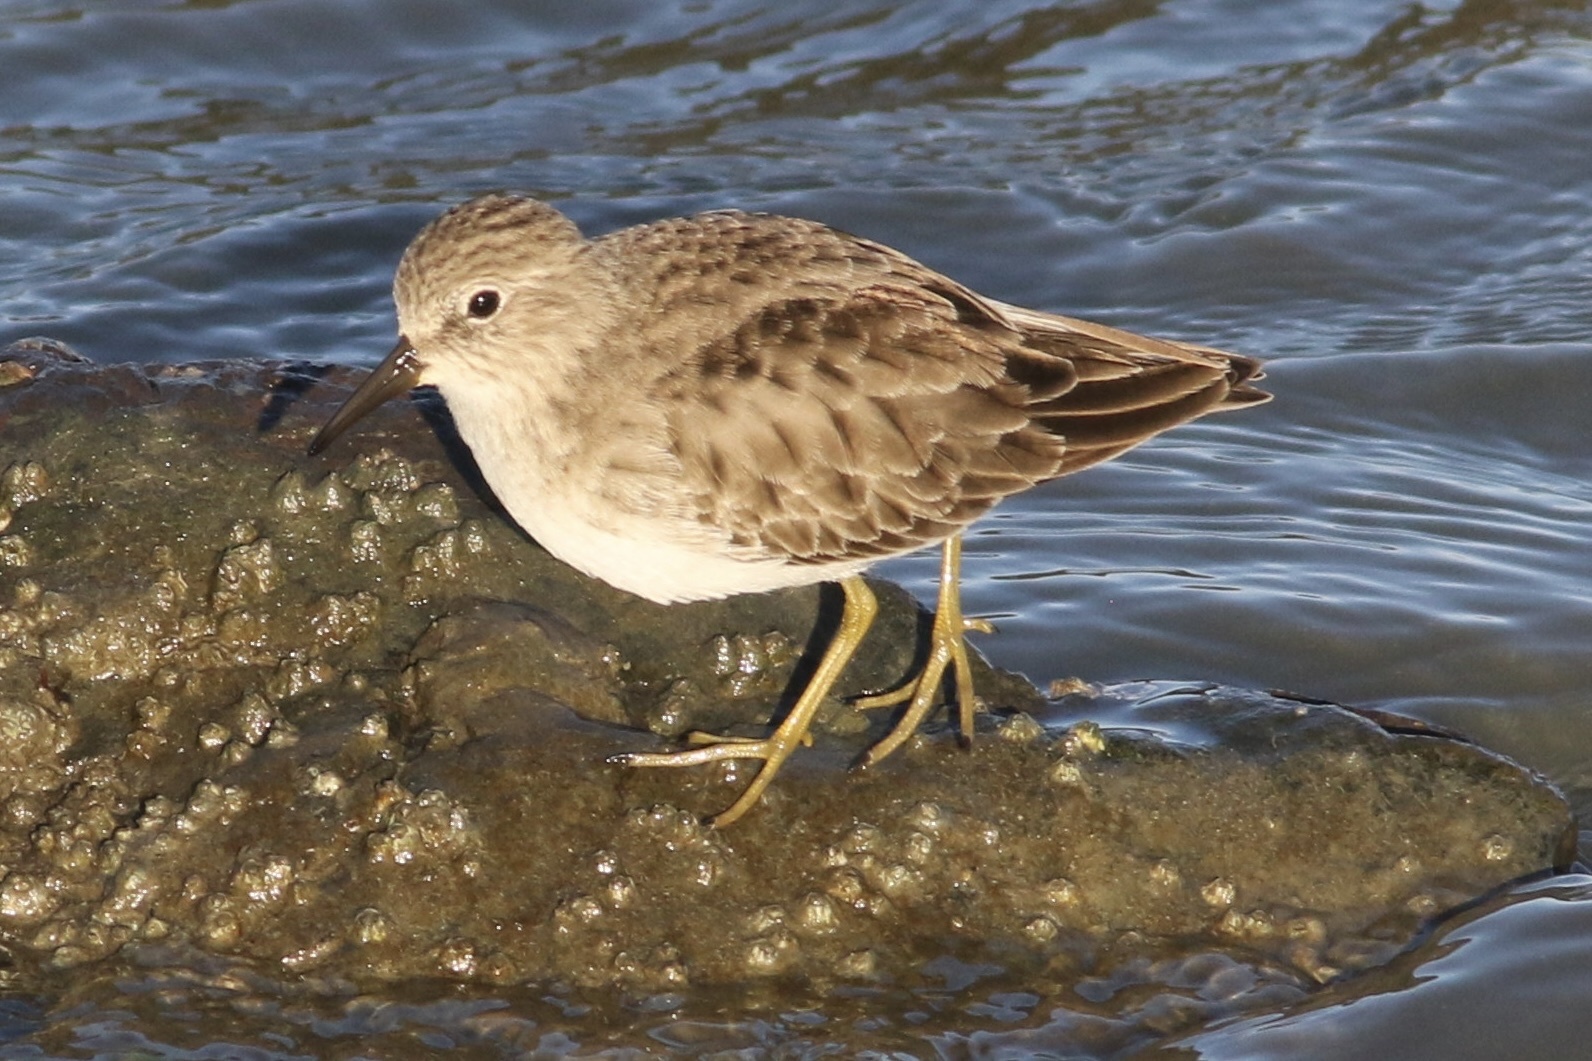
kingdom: Animalia
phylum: Chordata
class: Aves
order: Charadriiformes
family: Scolopacidae
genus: Calidris
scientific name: Calidris minutilla
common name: Least sandpiper
